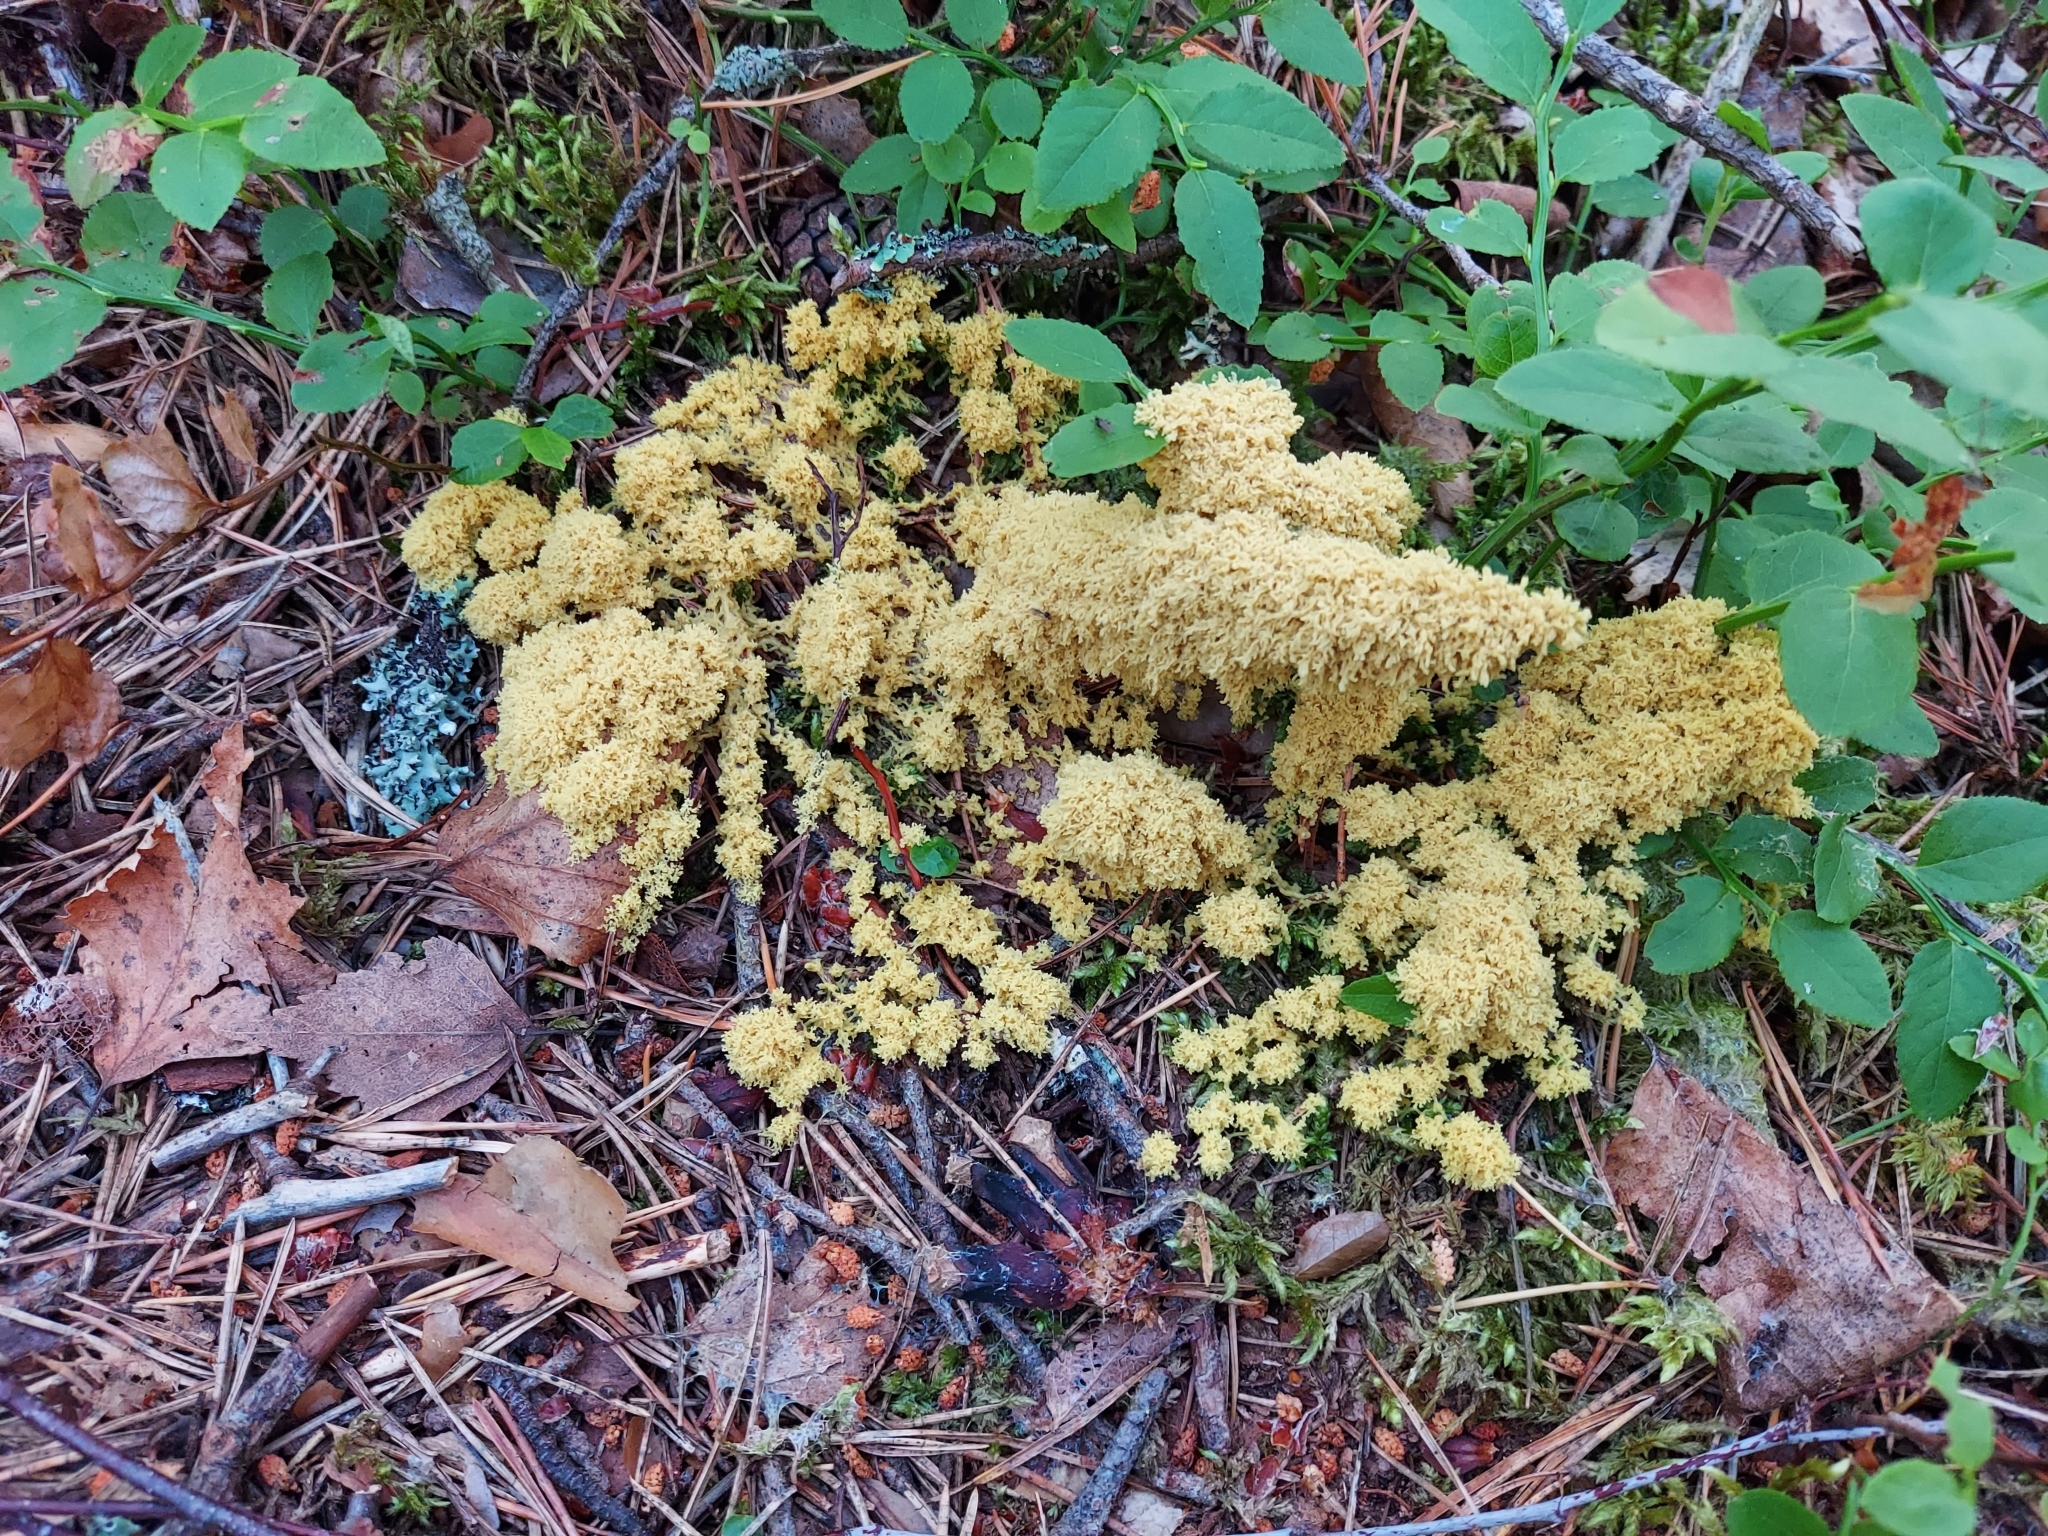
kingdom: Protozoa
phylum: Mycetozoa
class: Myxomycetes
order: Physarales
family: Physaraceae
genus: Fuligo
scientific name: Fuligo septica
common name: Dog vomit slime mold
